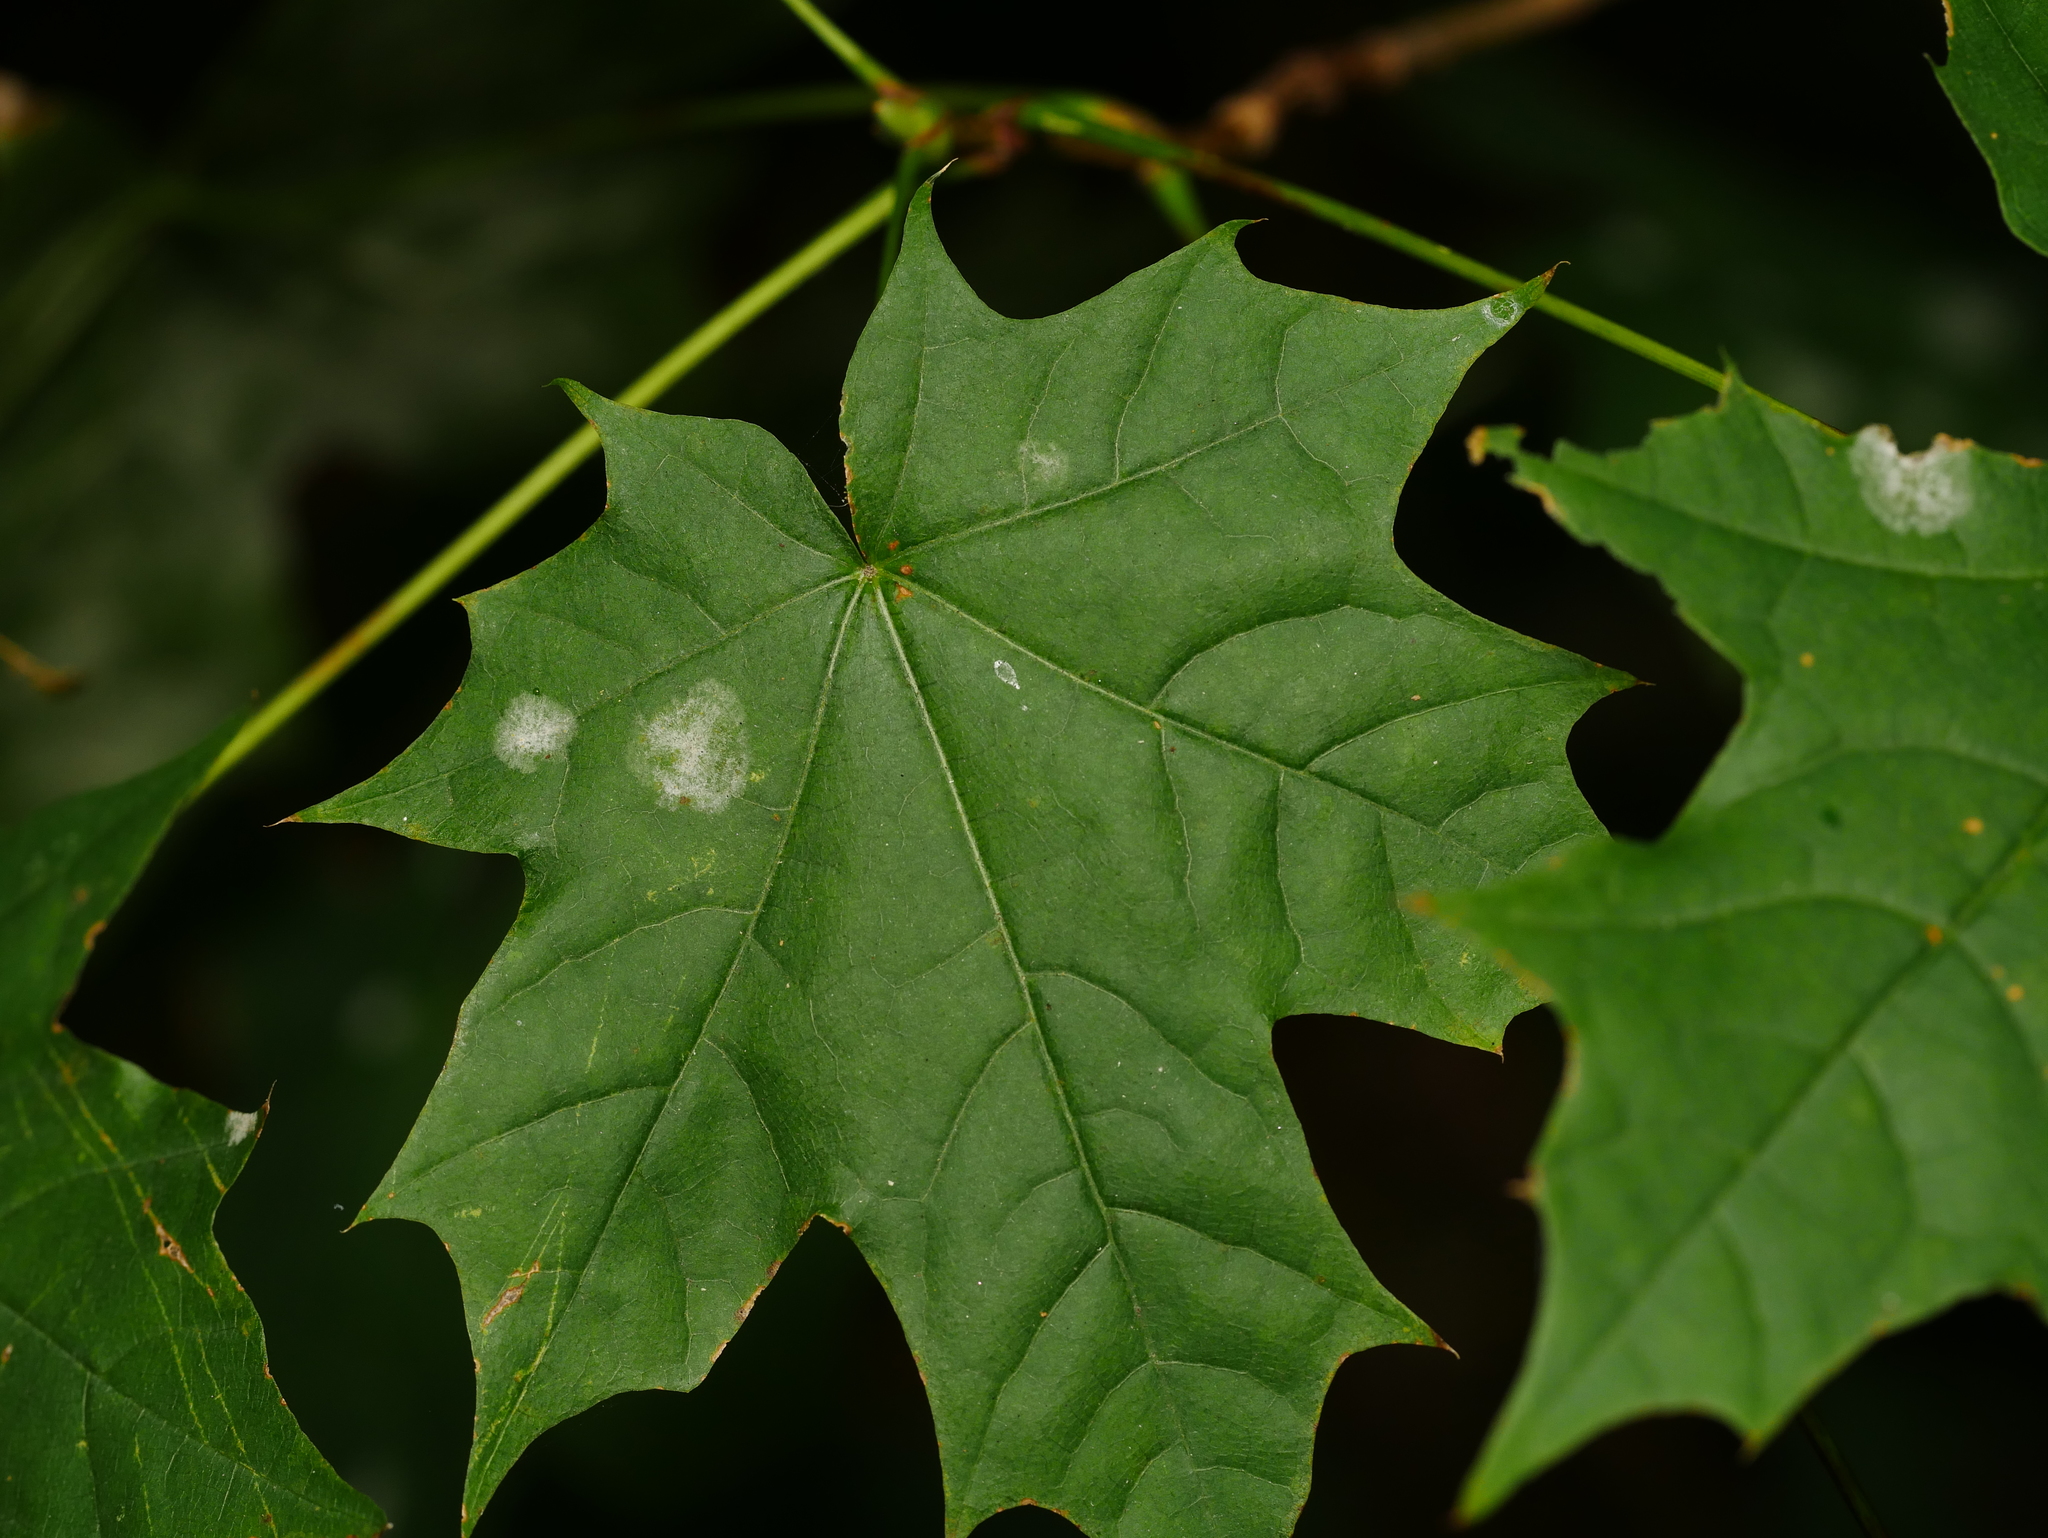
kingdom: Plantae
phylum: Tracheophyta
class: Magnoliopsida
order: Sapindales
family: Sapindaceae
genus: Acer
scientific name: Acer platanoides
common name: Norway maple
